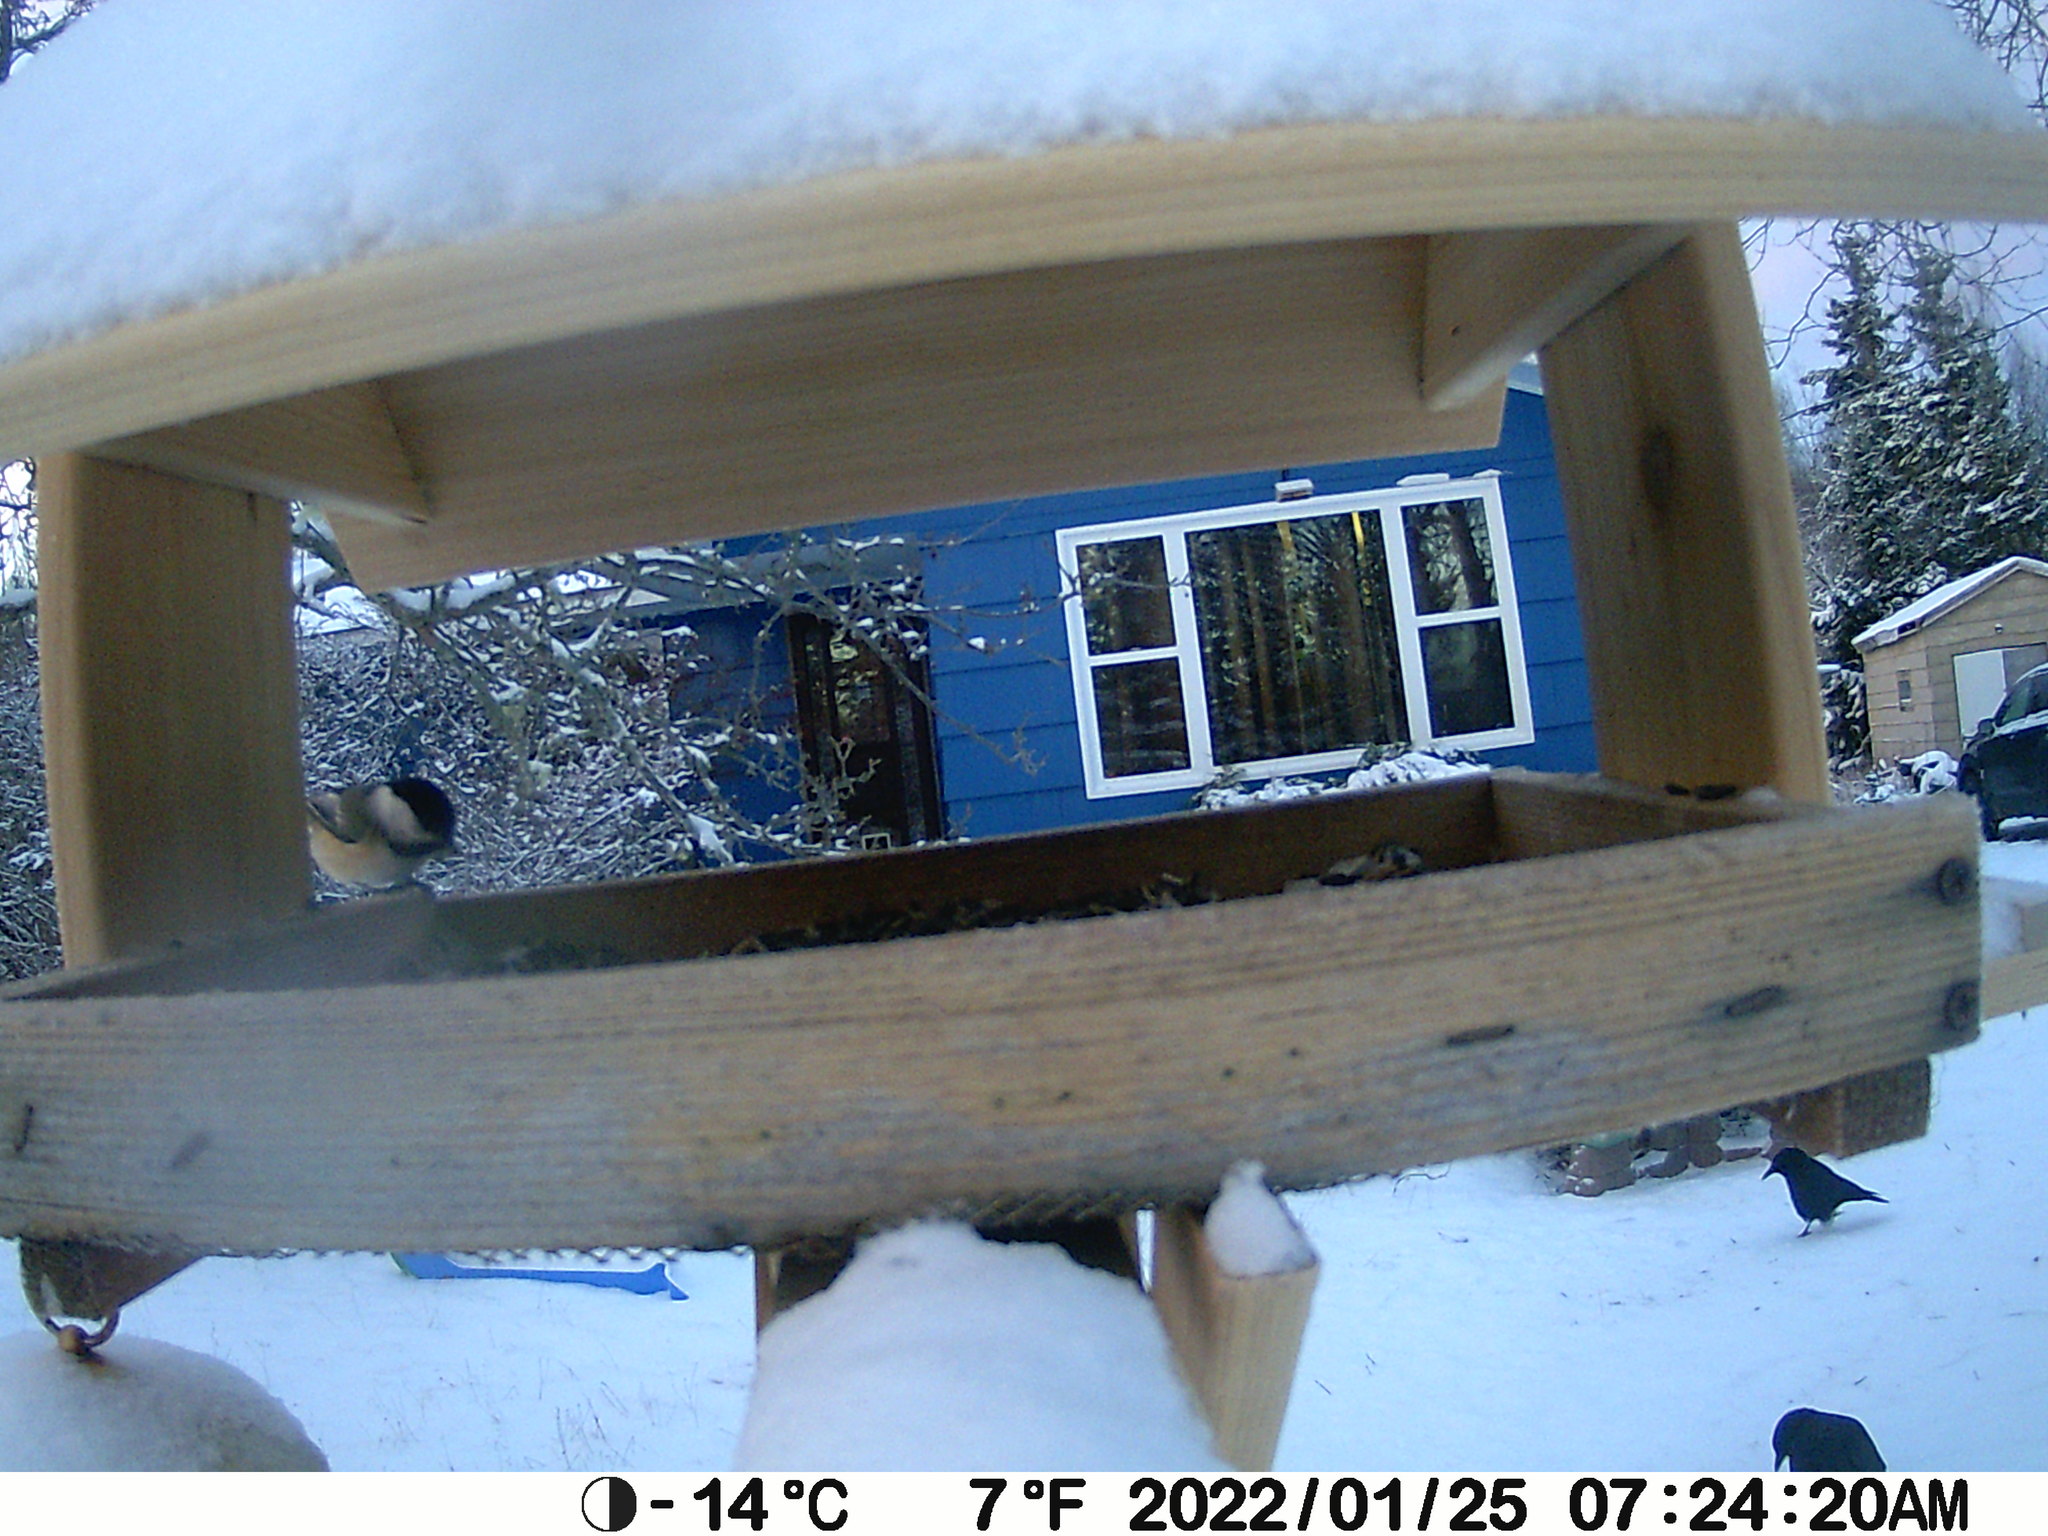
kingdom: Animalia
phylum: Chordata
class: Aves
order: Passeriformes
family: Corvidae
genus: Corvus
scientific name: Corvus brachyrhynchos
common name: American crow
